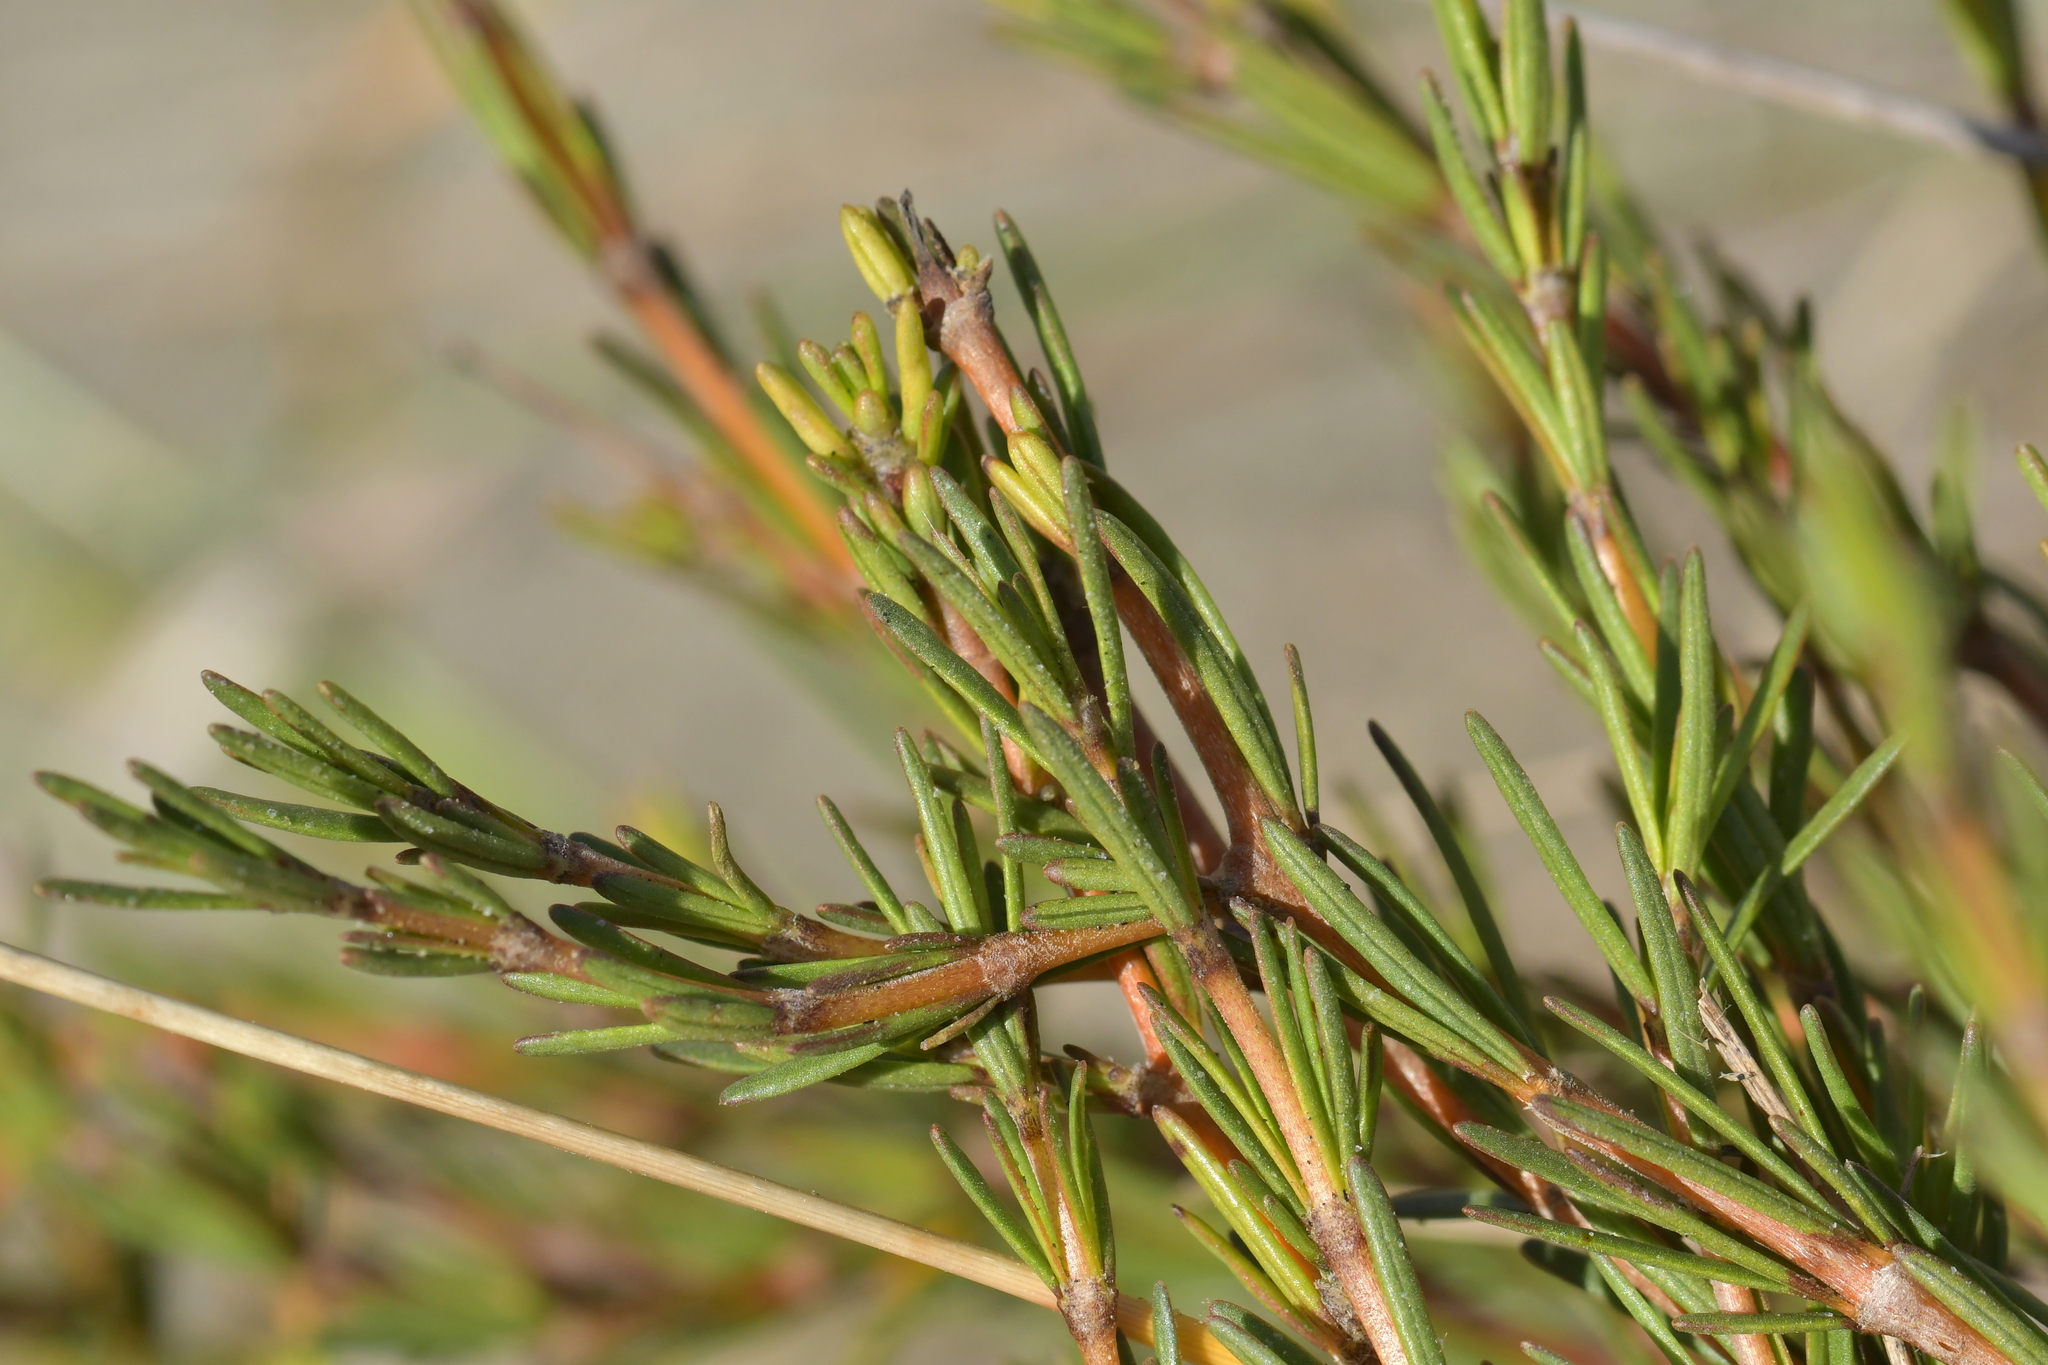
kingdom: Plantae
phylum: Tracheophyta
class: Magnoliopsida
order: Gentianales
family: Rubiaceae
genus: Coprosma
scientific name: Coprosma acerosa
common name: Sand coprosma
